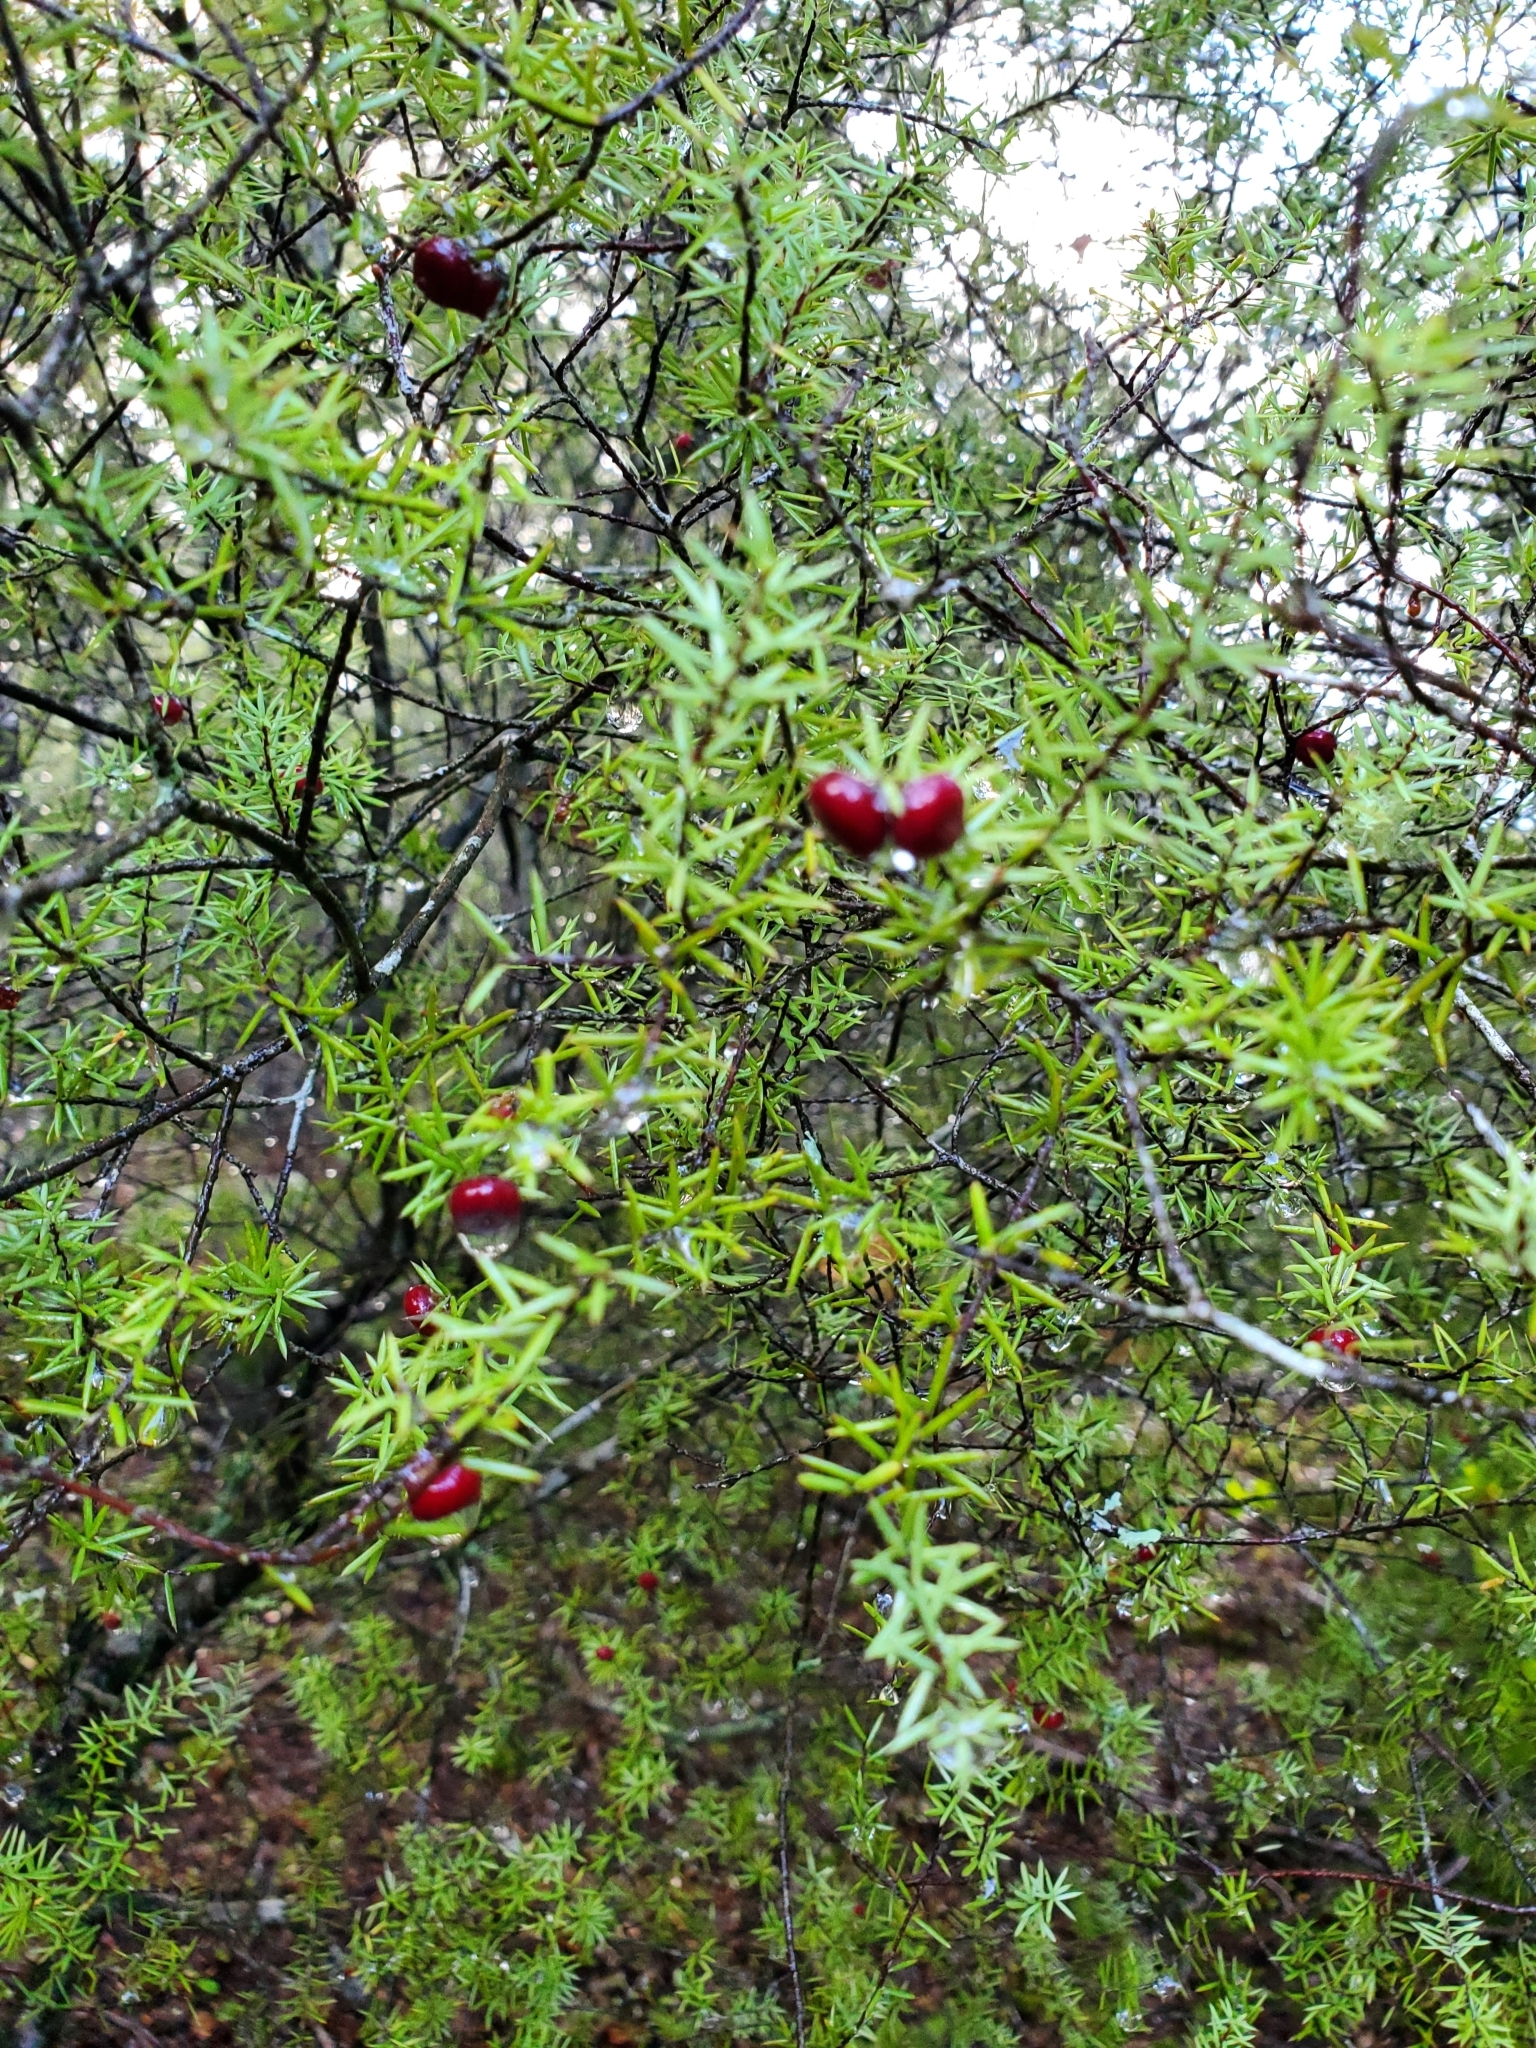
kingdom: Plantae
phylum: Tracheophyta
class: Magnoliopsida
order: Ericales
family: Ericaceae
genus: Leptecophylla
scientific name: Leptecophylla juniperina
